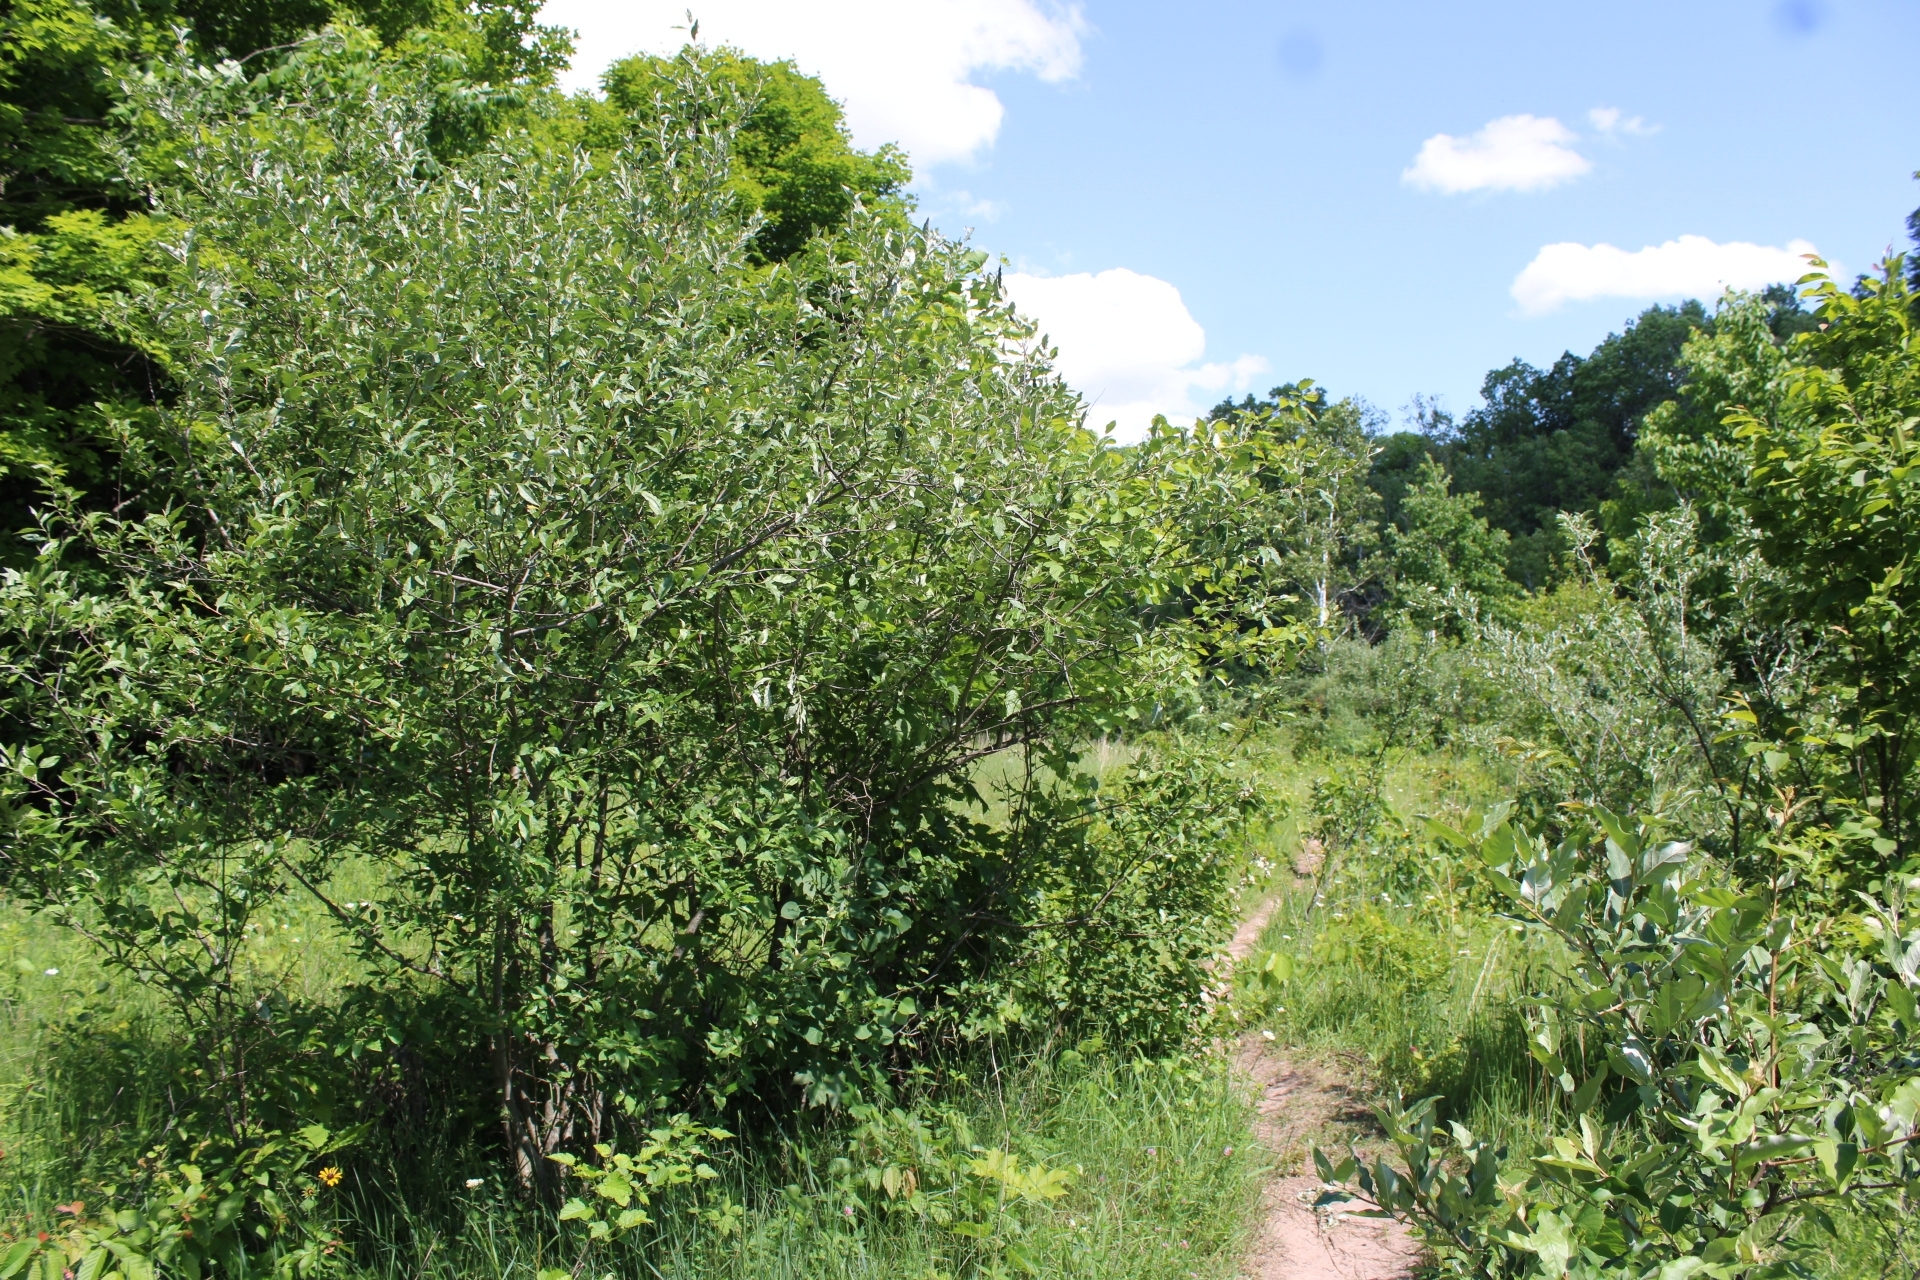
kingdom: Plantae
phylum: Tracheophyta
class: Magnoliopsida
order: Rosales
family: Elaeagnaceae
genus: Elaeagnus
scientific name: Elaeagnus umbellata
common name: Autumn olive
